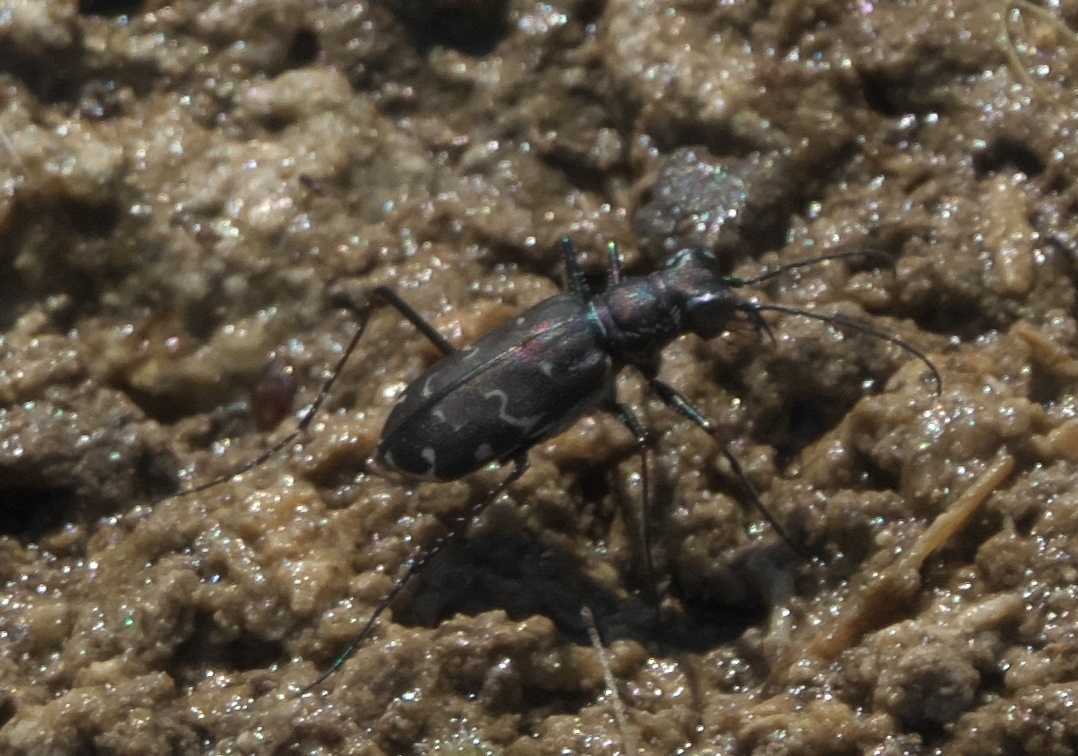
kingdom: Animalia
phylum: Arthropoda
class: Insecta
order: Coleoptera
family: Carabidae
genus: Cicindela
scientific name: Cicindela trifasciata
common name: Mudflat tiger beetle
